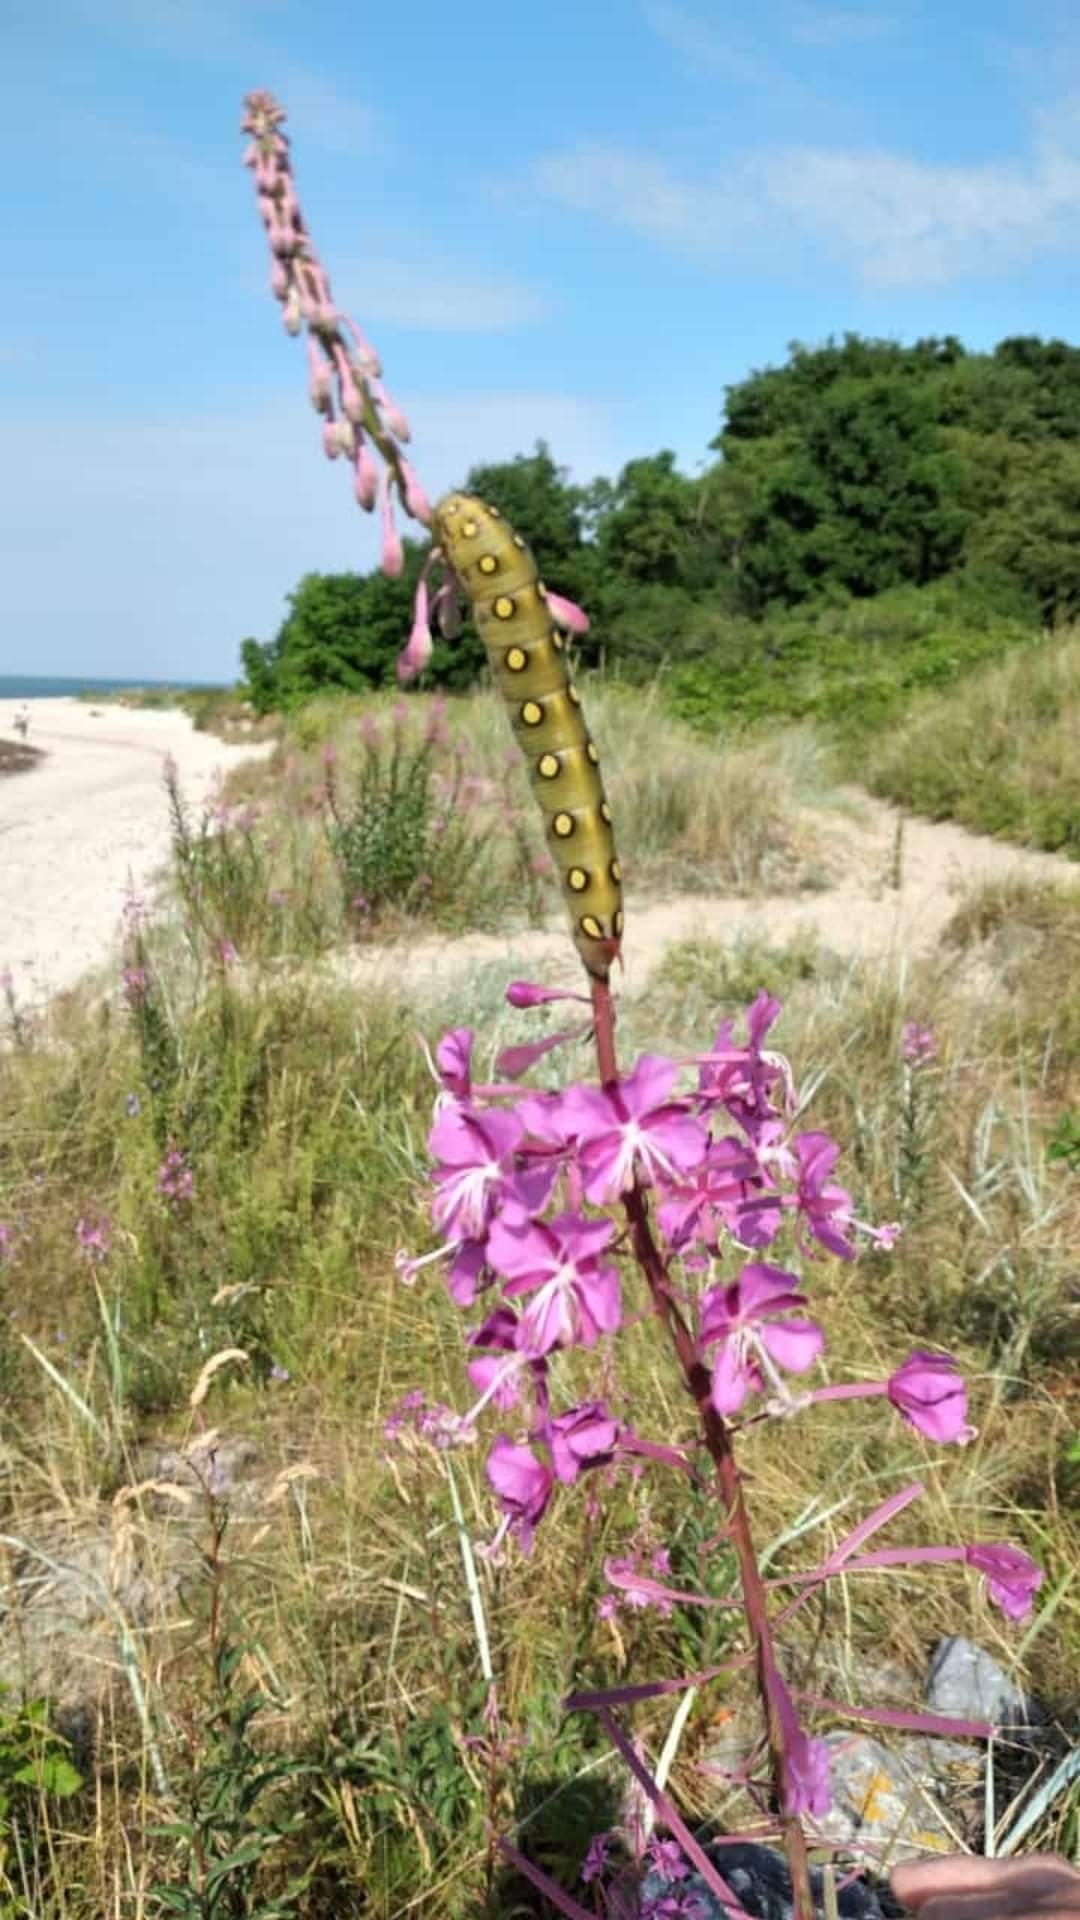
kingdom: Animalia
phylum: Arthropoda
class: Insecta
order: Lepidoptera
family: Sphingidae
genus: Hyles
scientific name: Hyles gallii
